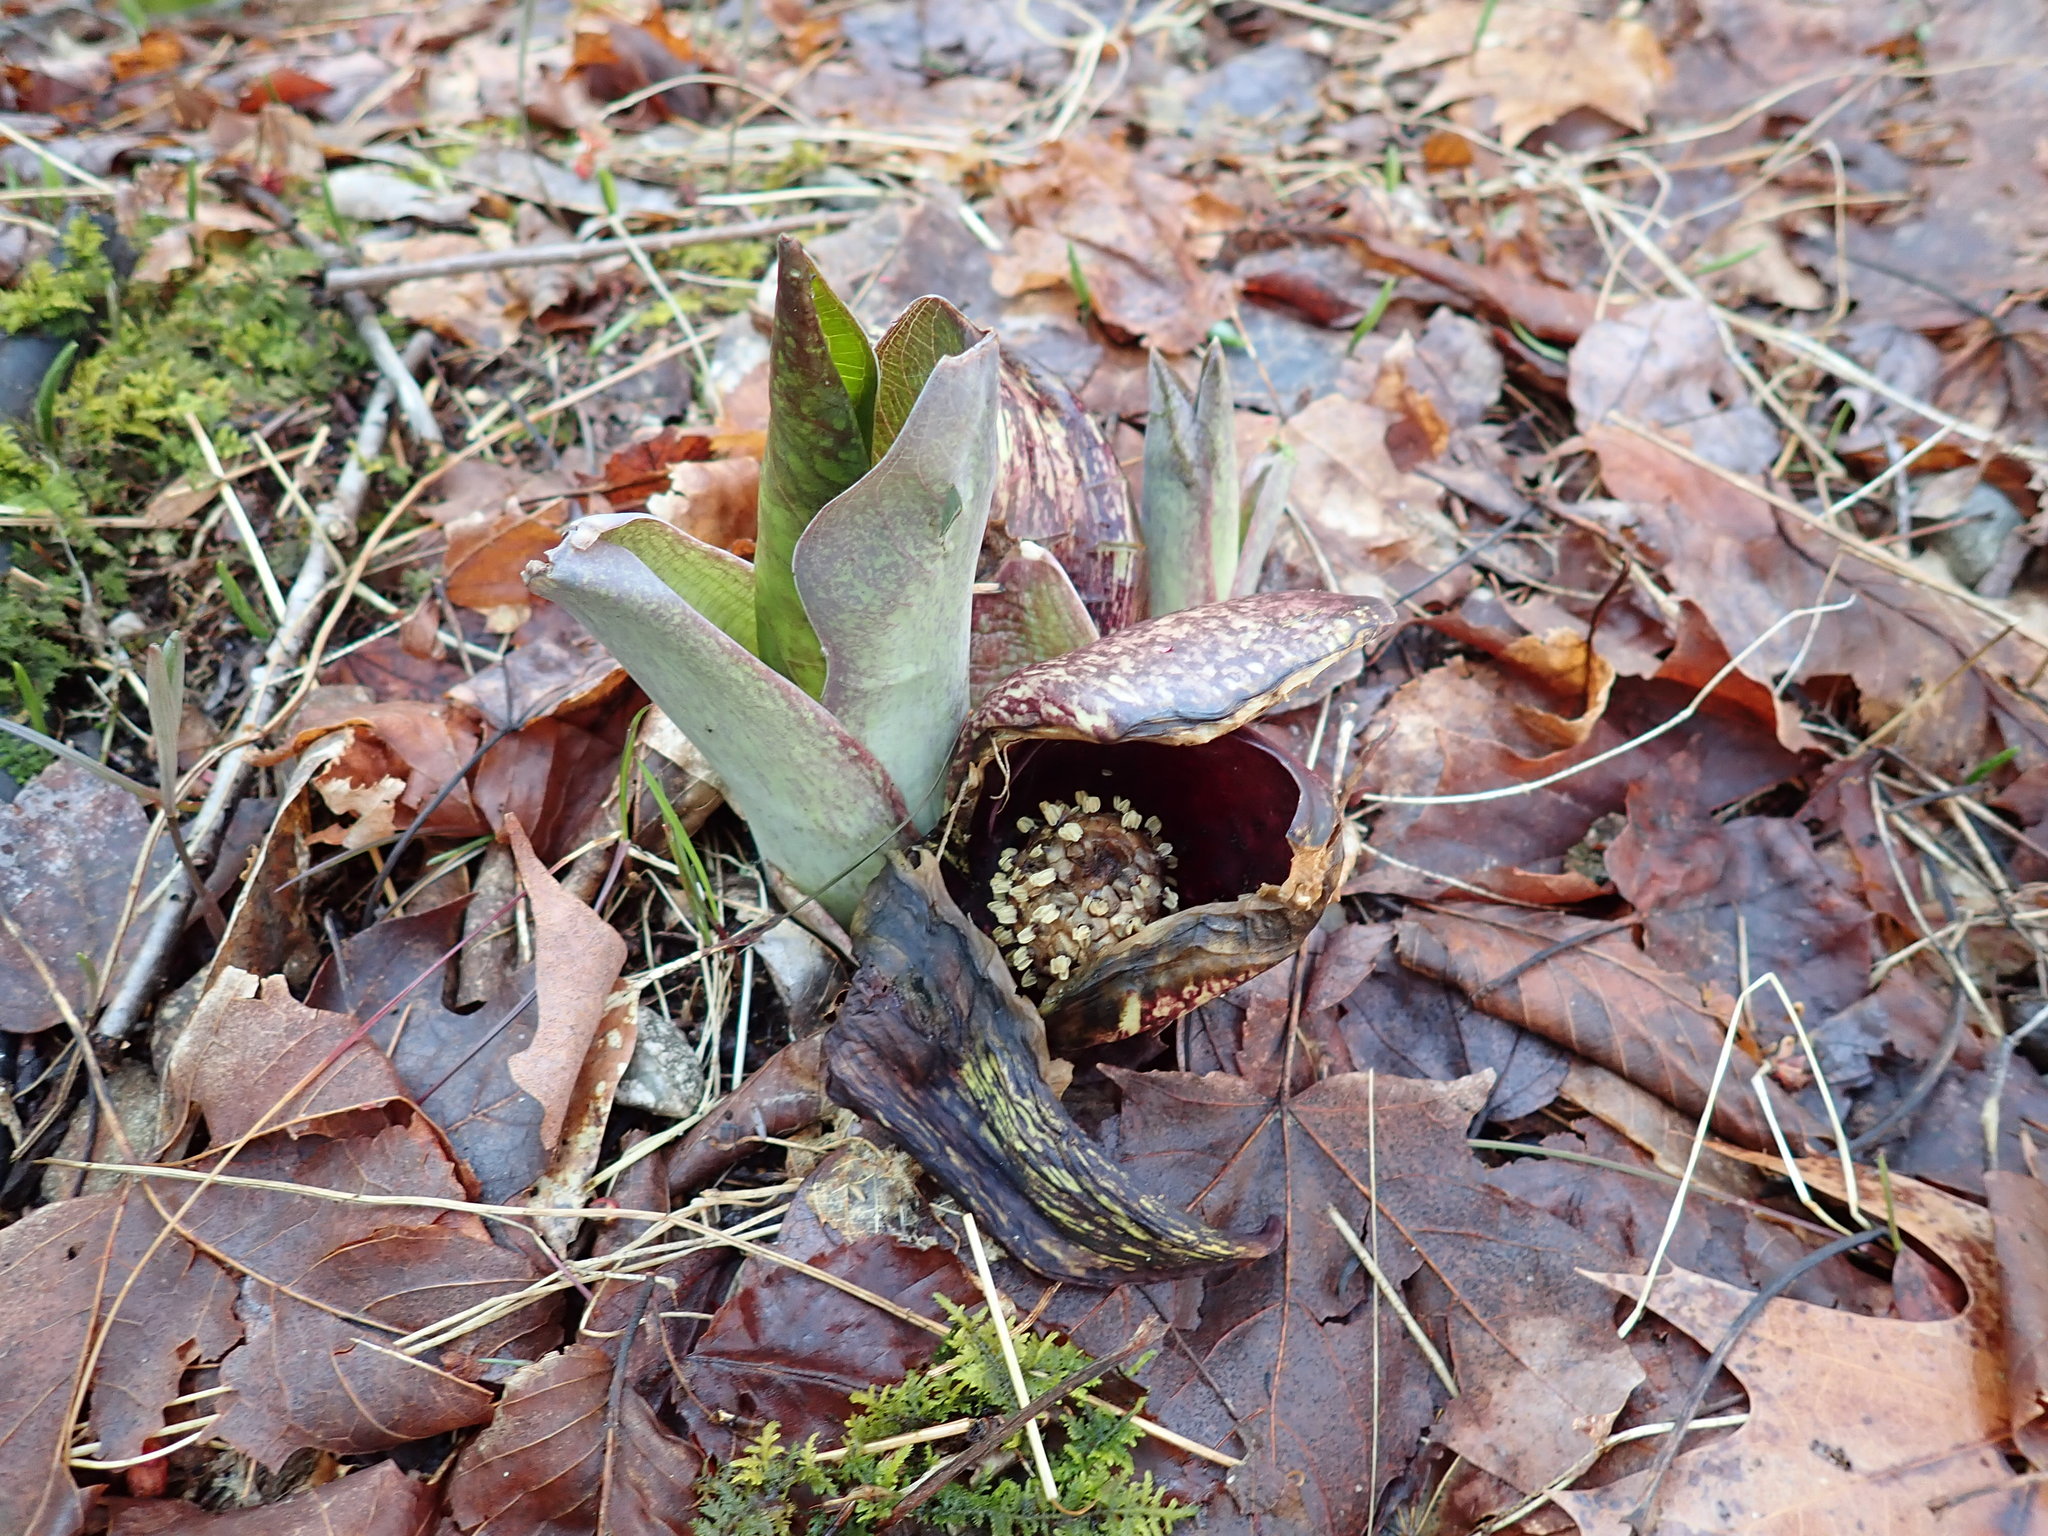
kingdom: Plantae
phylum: Tracheophyta
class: Liliopsida
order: Alismatales
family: Araceae
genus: Symplocarpus
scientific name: Symplocarpus foetidus
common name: Eastern skunk cabbage
